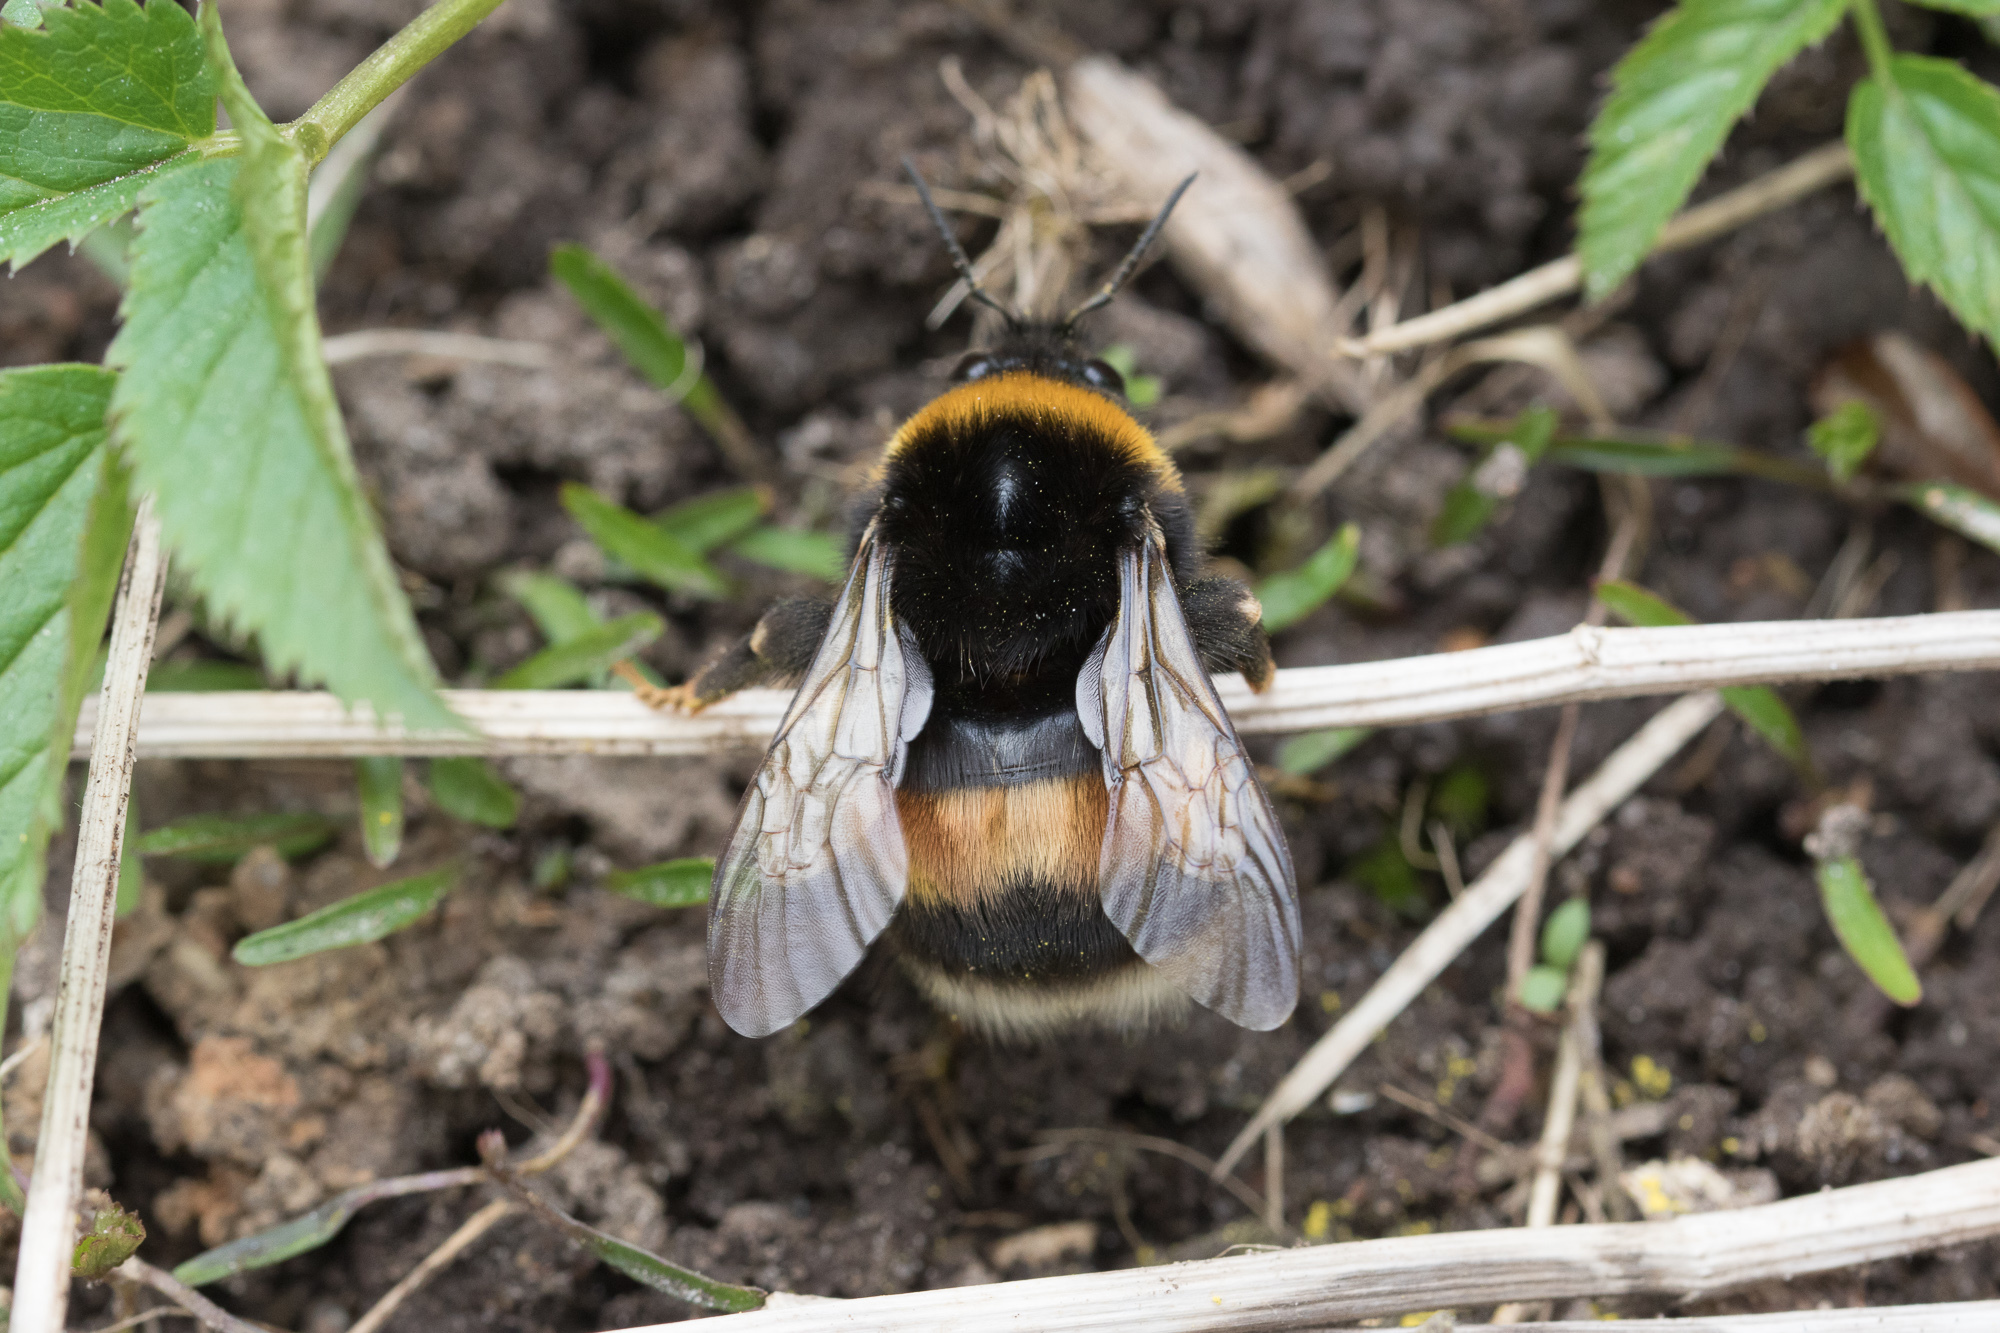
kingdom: Animalia
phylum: Arthropoda
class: Insecta
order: Hymenoptera
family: Apidae
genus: Bombus
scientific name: Bombus
